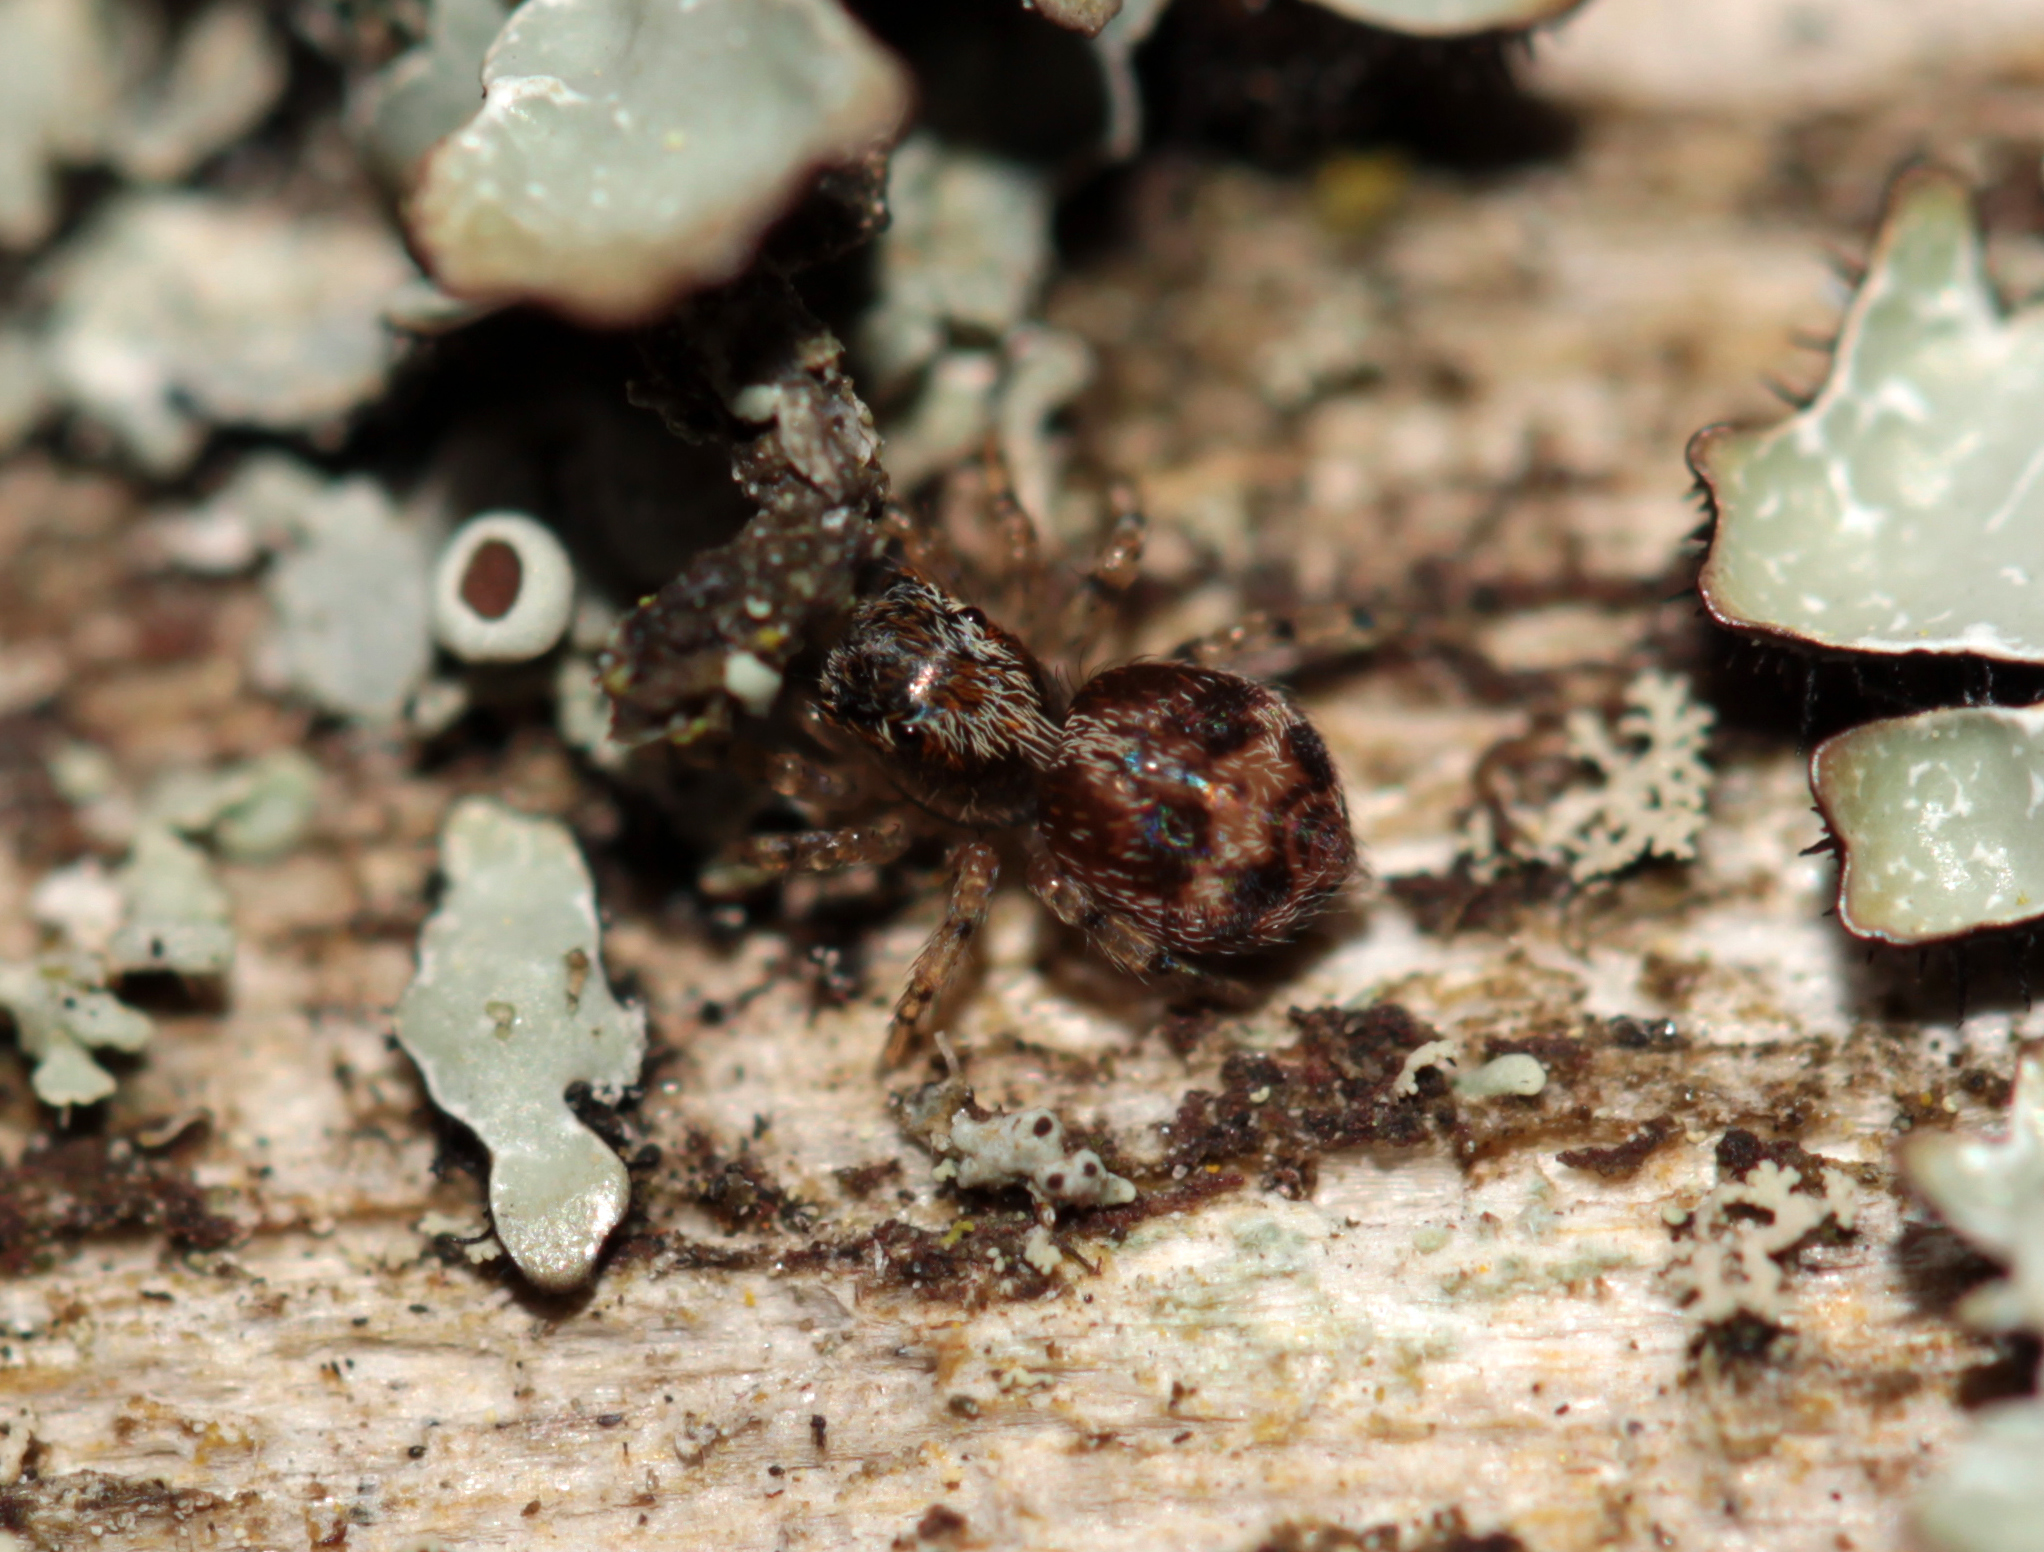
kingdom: Animalia
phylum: Arthropoda
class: Arachnida
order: Araneae
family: Salticidae
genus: Naphrys
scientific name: Naphrys pulex
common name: Flea jumping spider
